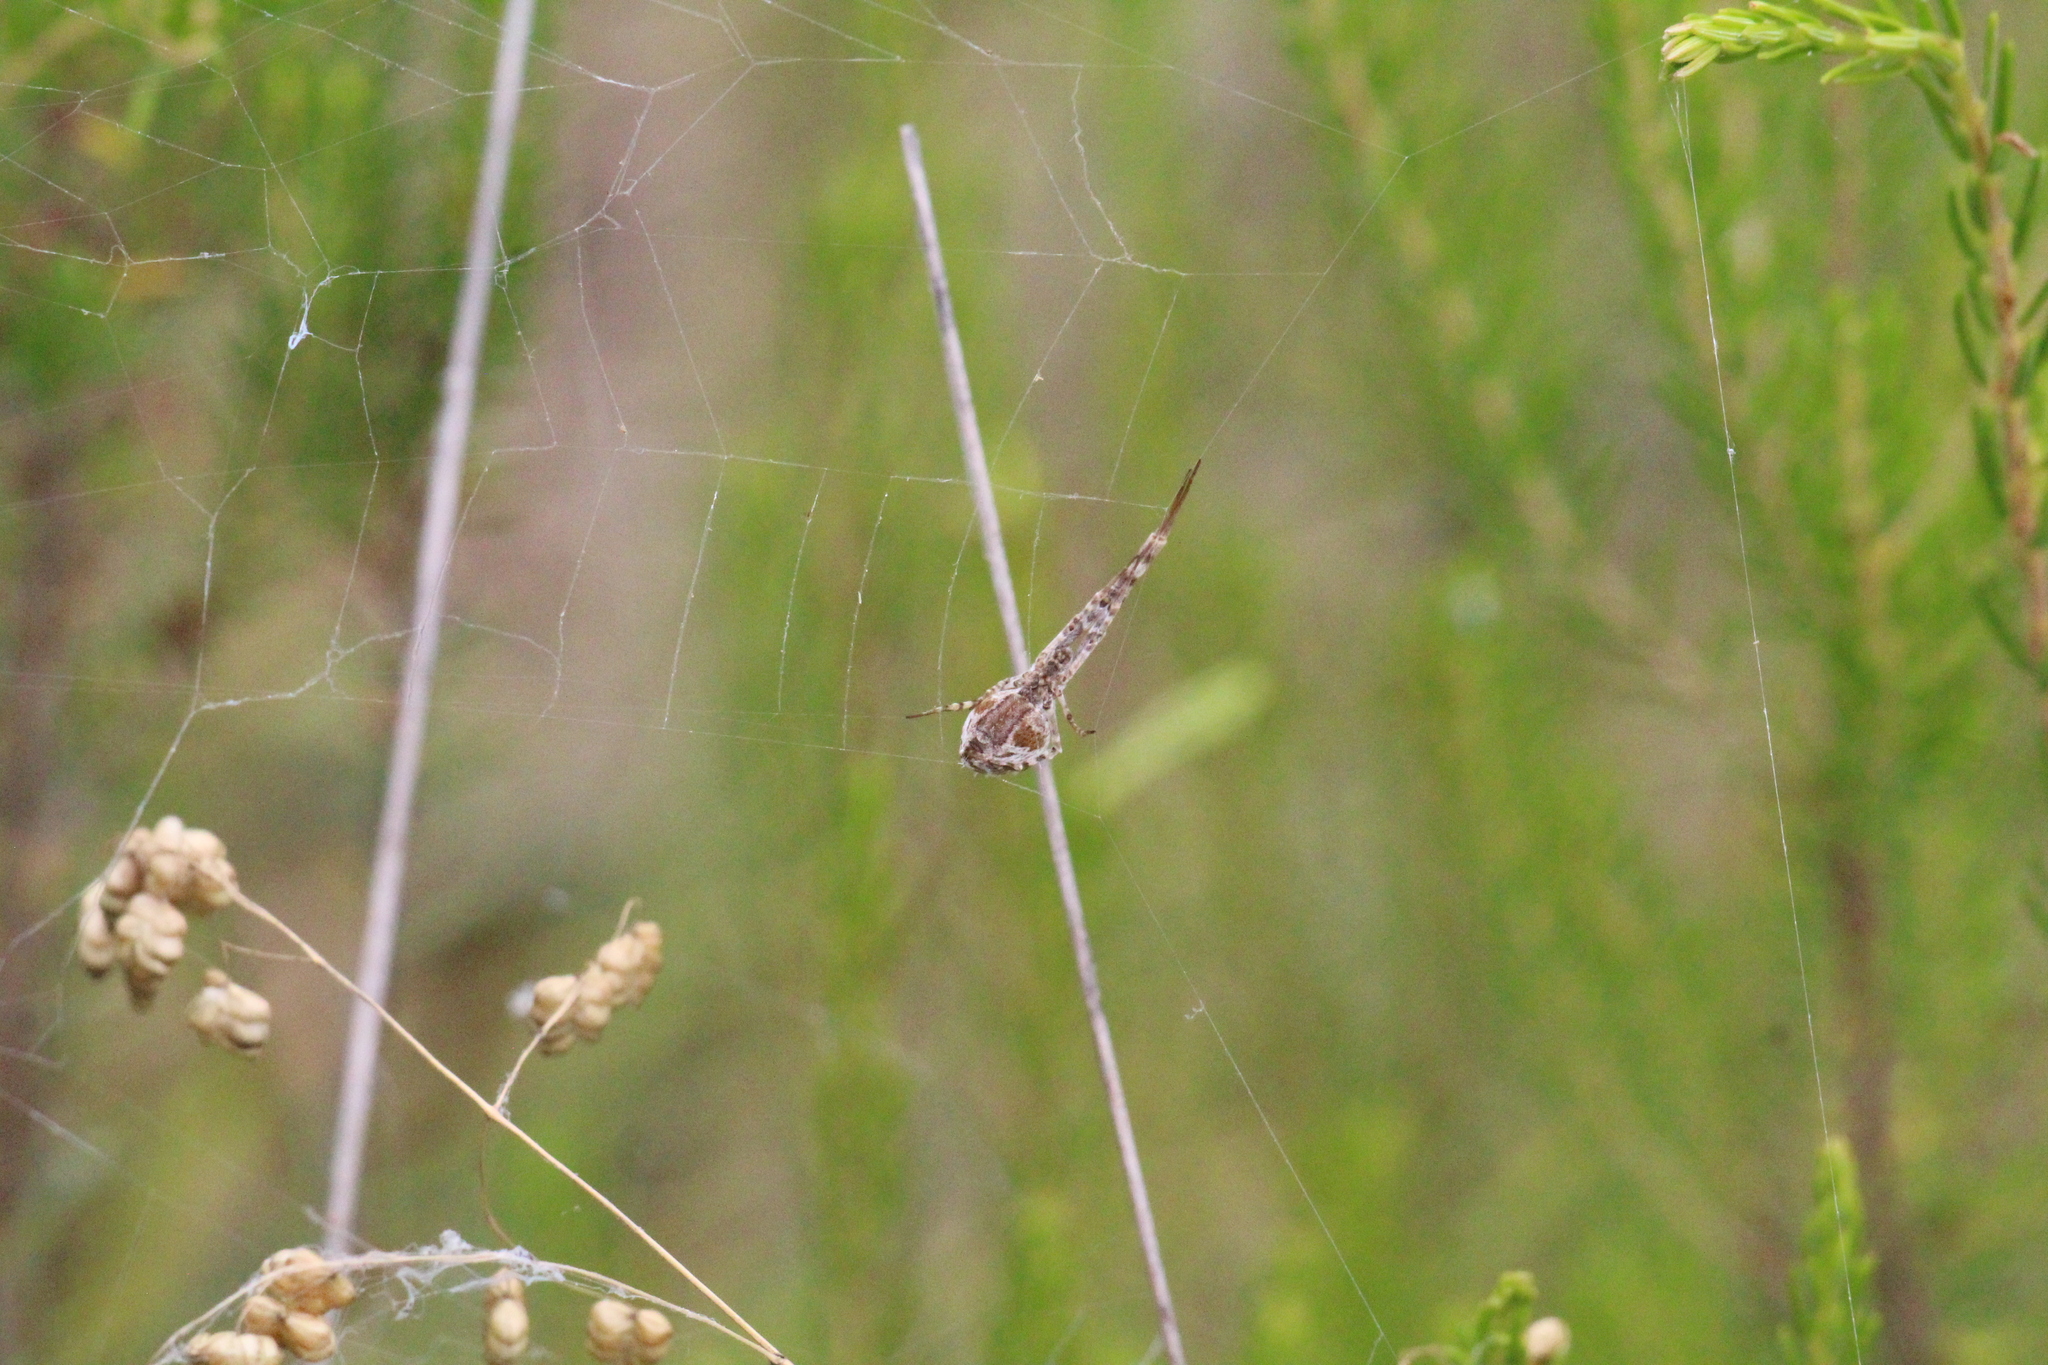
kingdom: Animalia
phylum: Arthropoda
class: Arachnida
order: Araneae
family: Uloboridae
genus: Uloborus
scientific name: Uloborus walckenaerius
